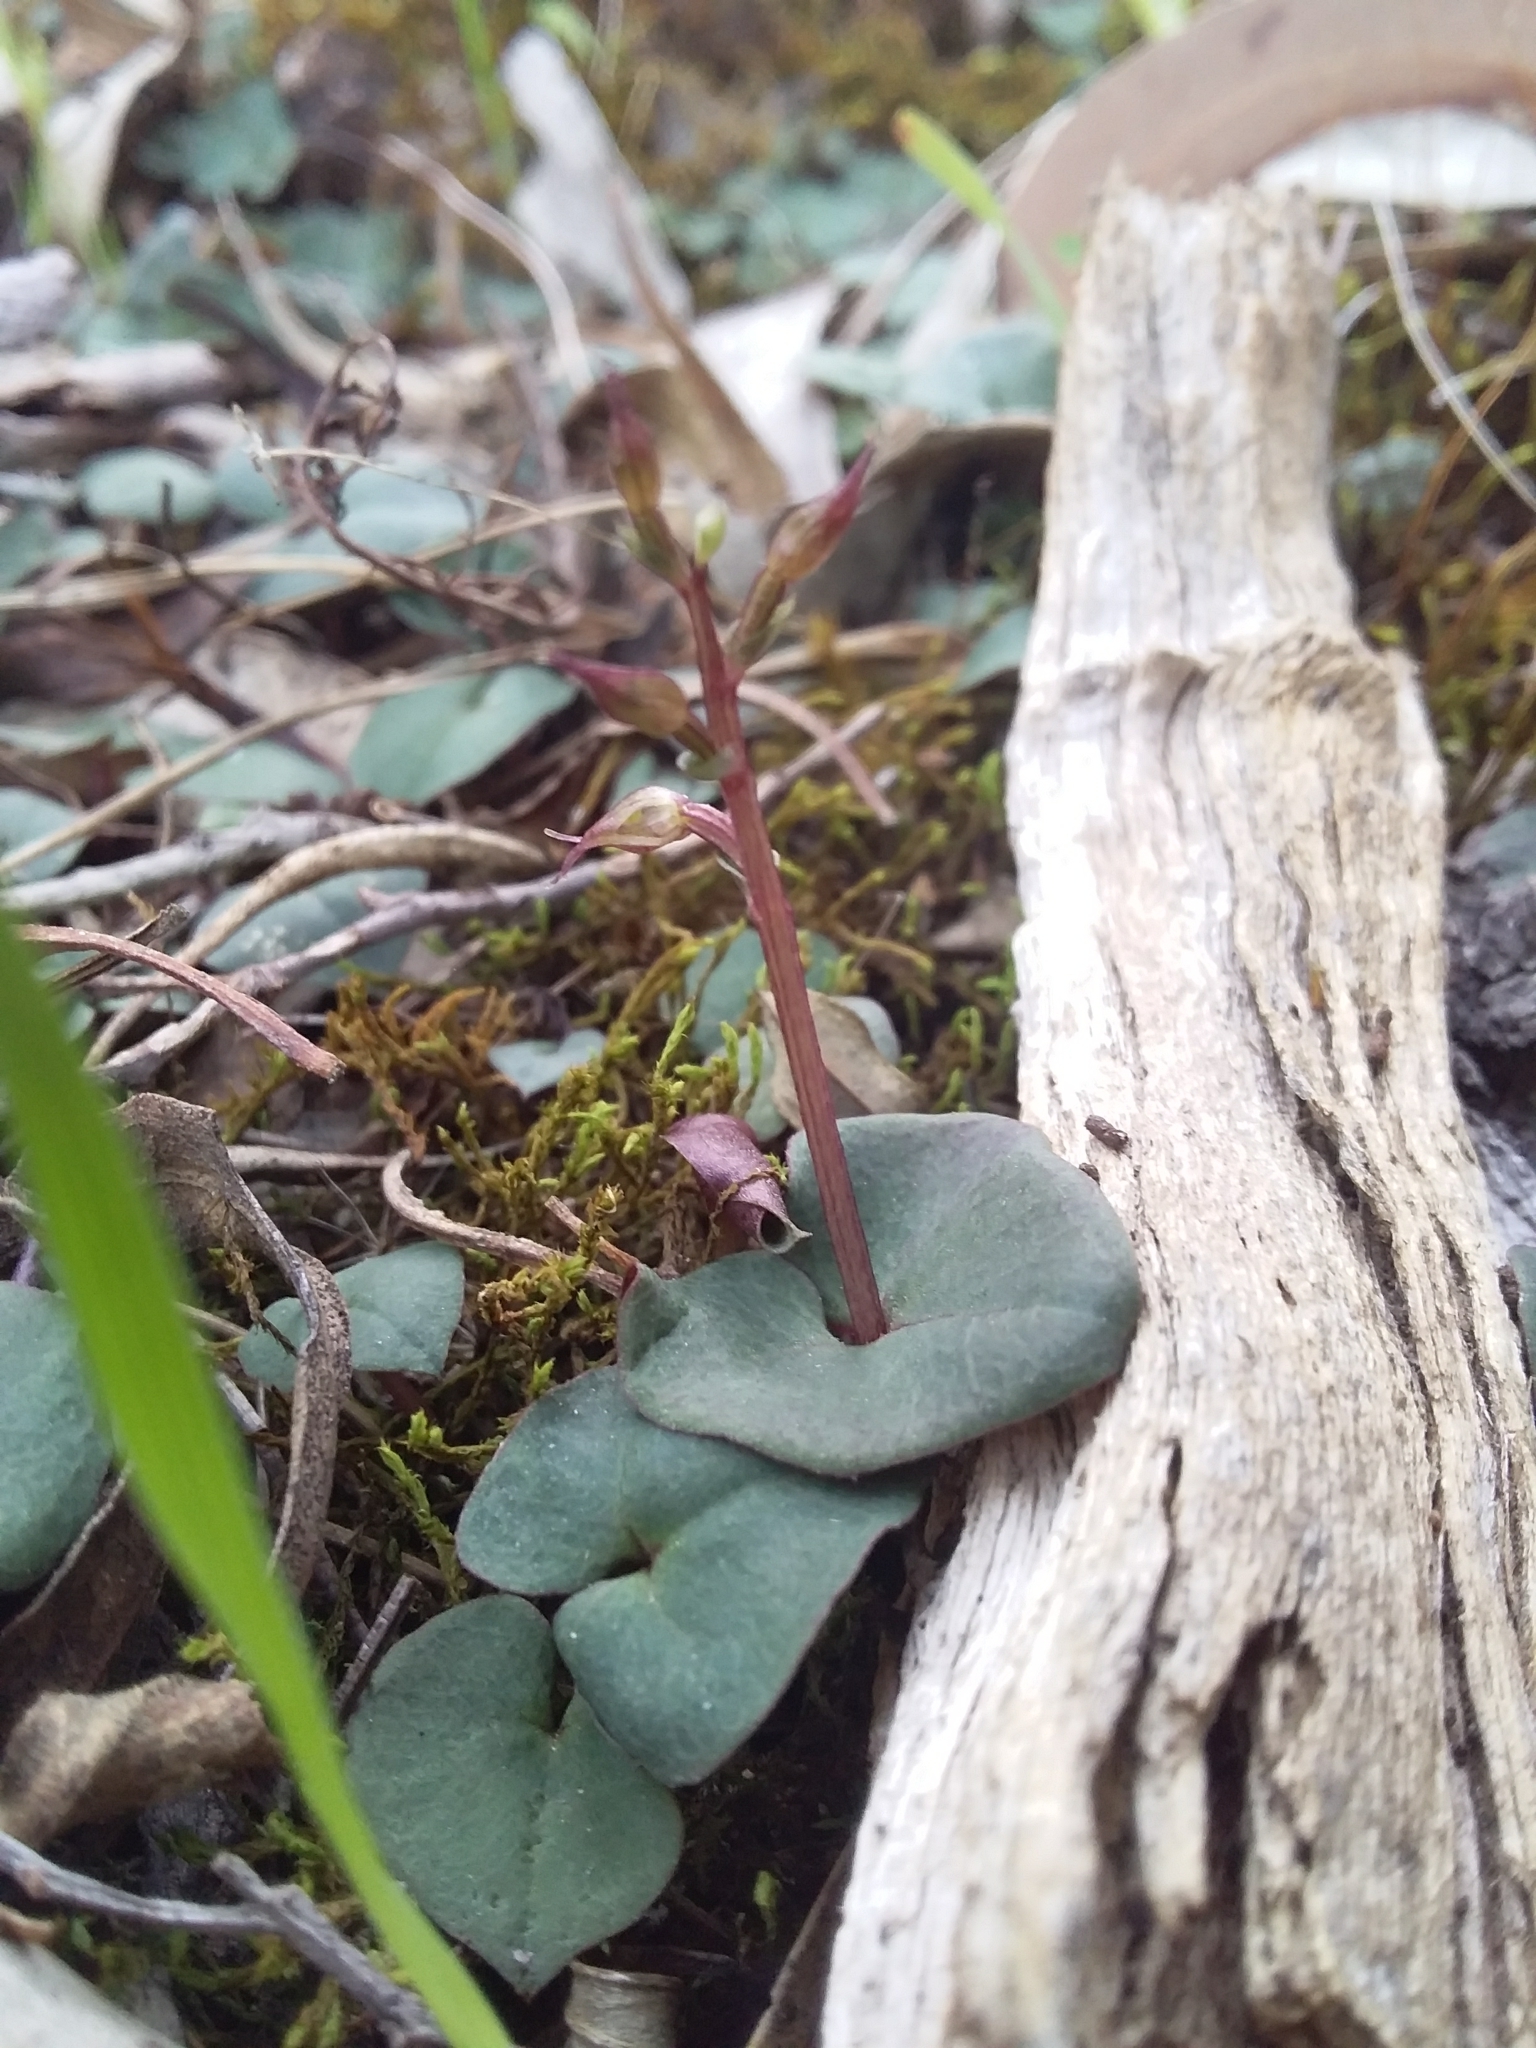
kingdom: Plantae
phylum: Tracheophyta
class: Liliopsida
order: Asparagales
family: Orchidaceae
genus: Acianthus
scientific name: Acianthus pusillus
